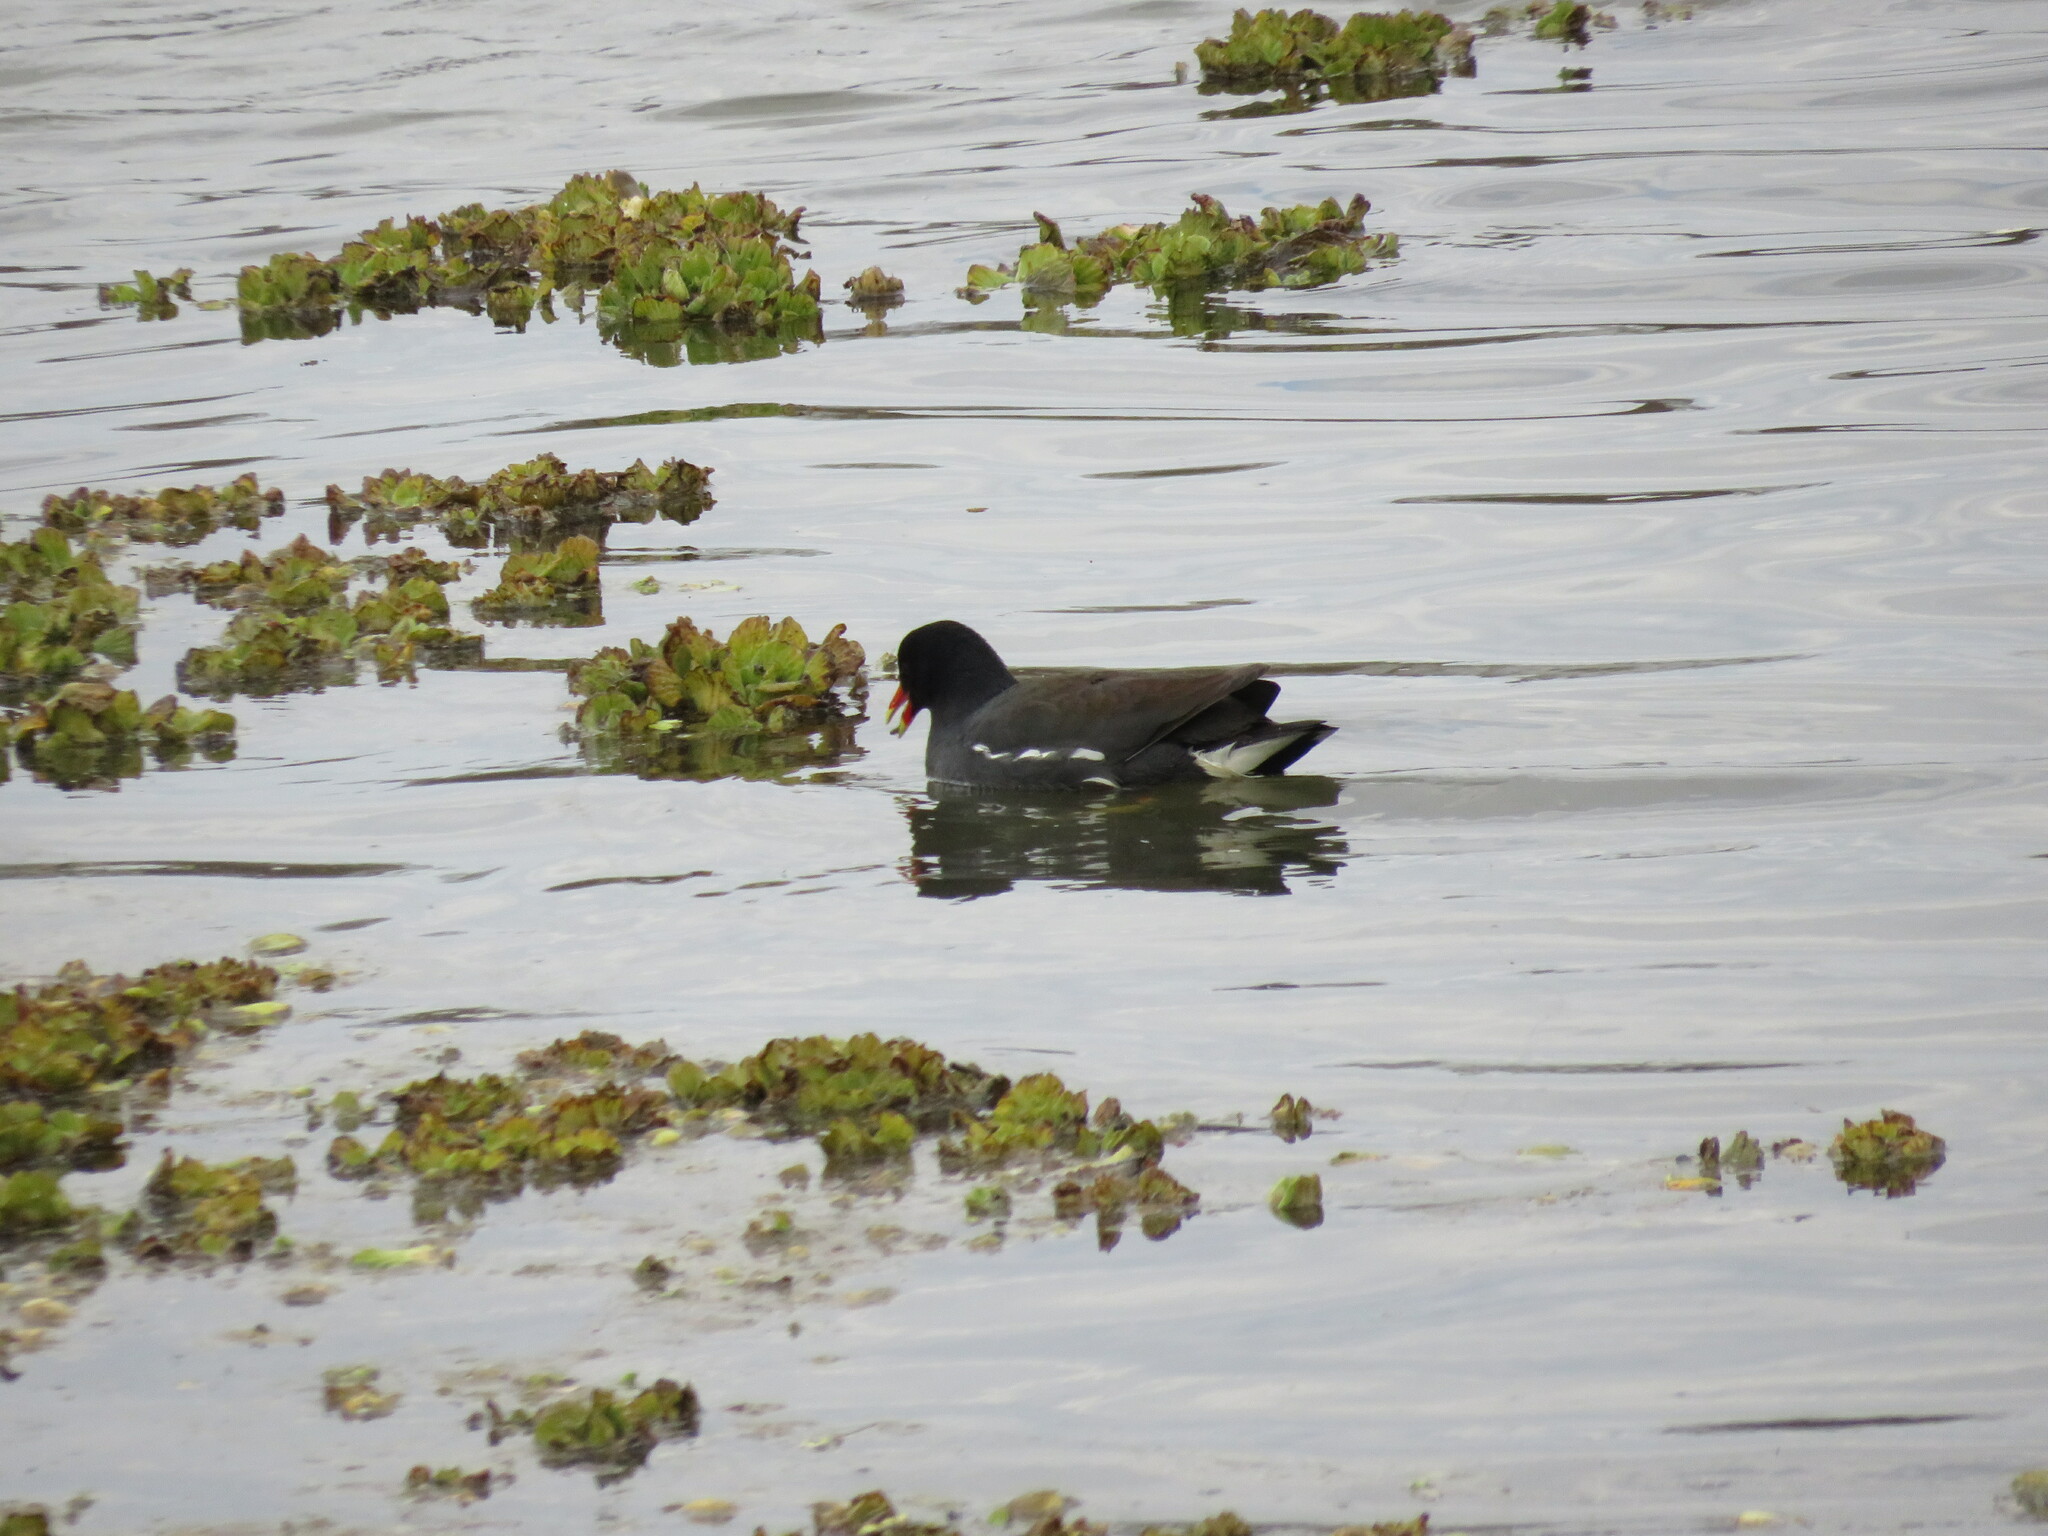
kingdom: Animalia
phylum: Chordata
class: Aves
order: Gruiformes
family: Rallidae
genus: Gallinula
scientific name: Gallinula chloropus
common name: Common moorhen
